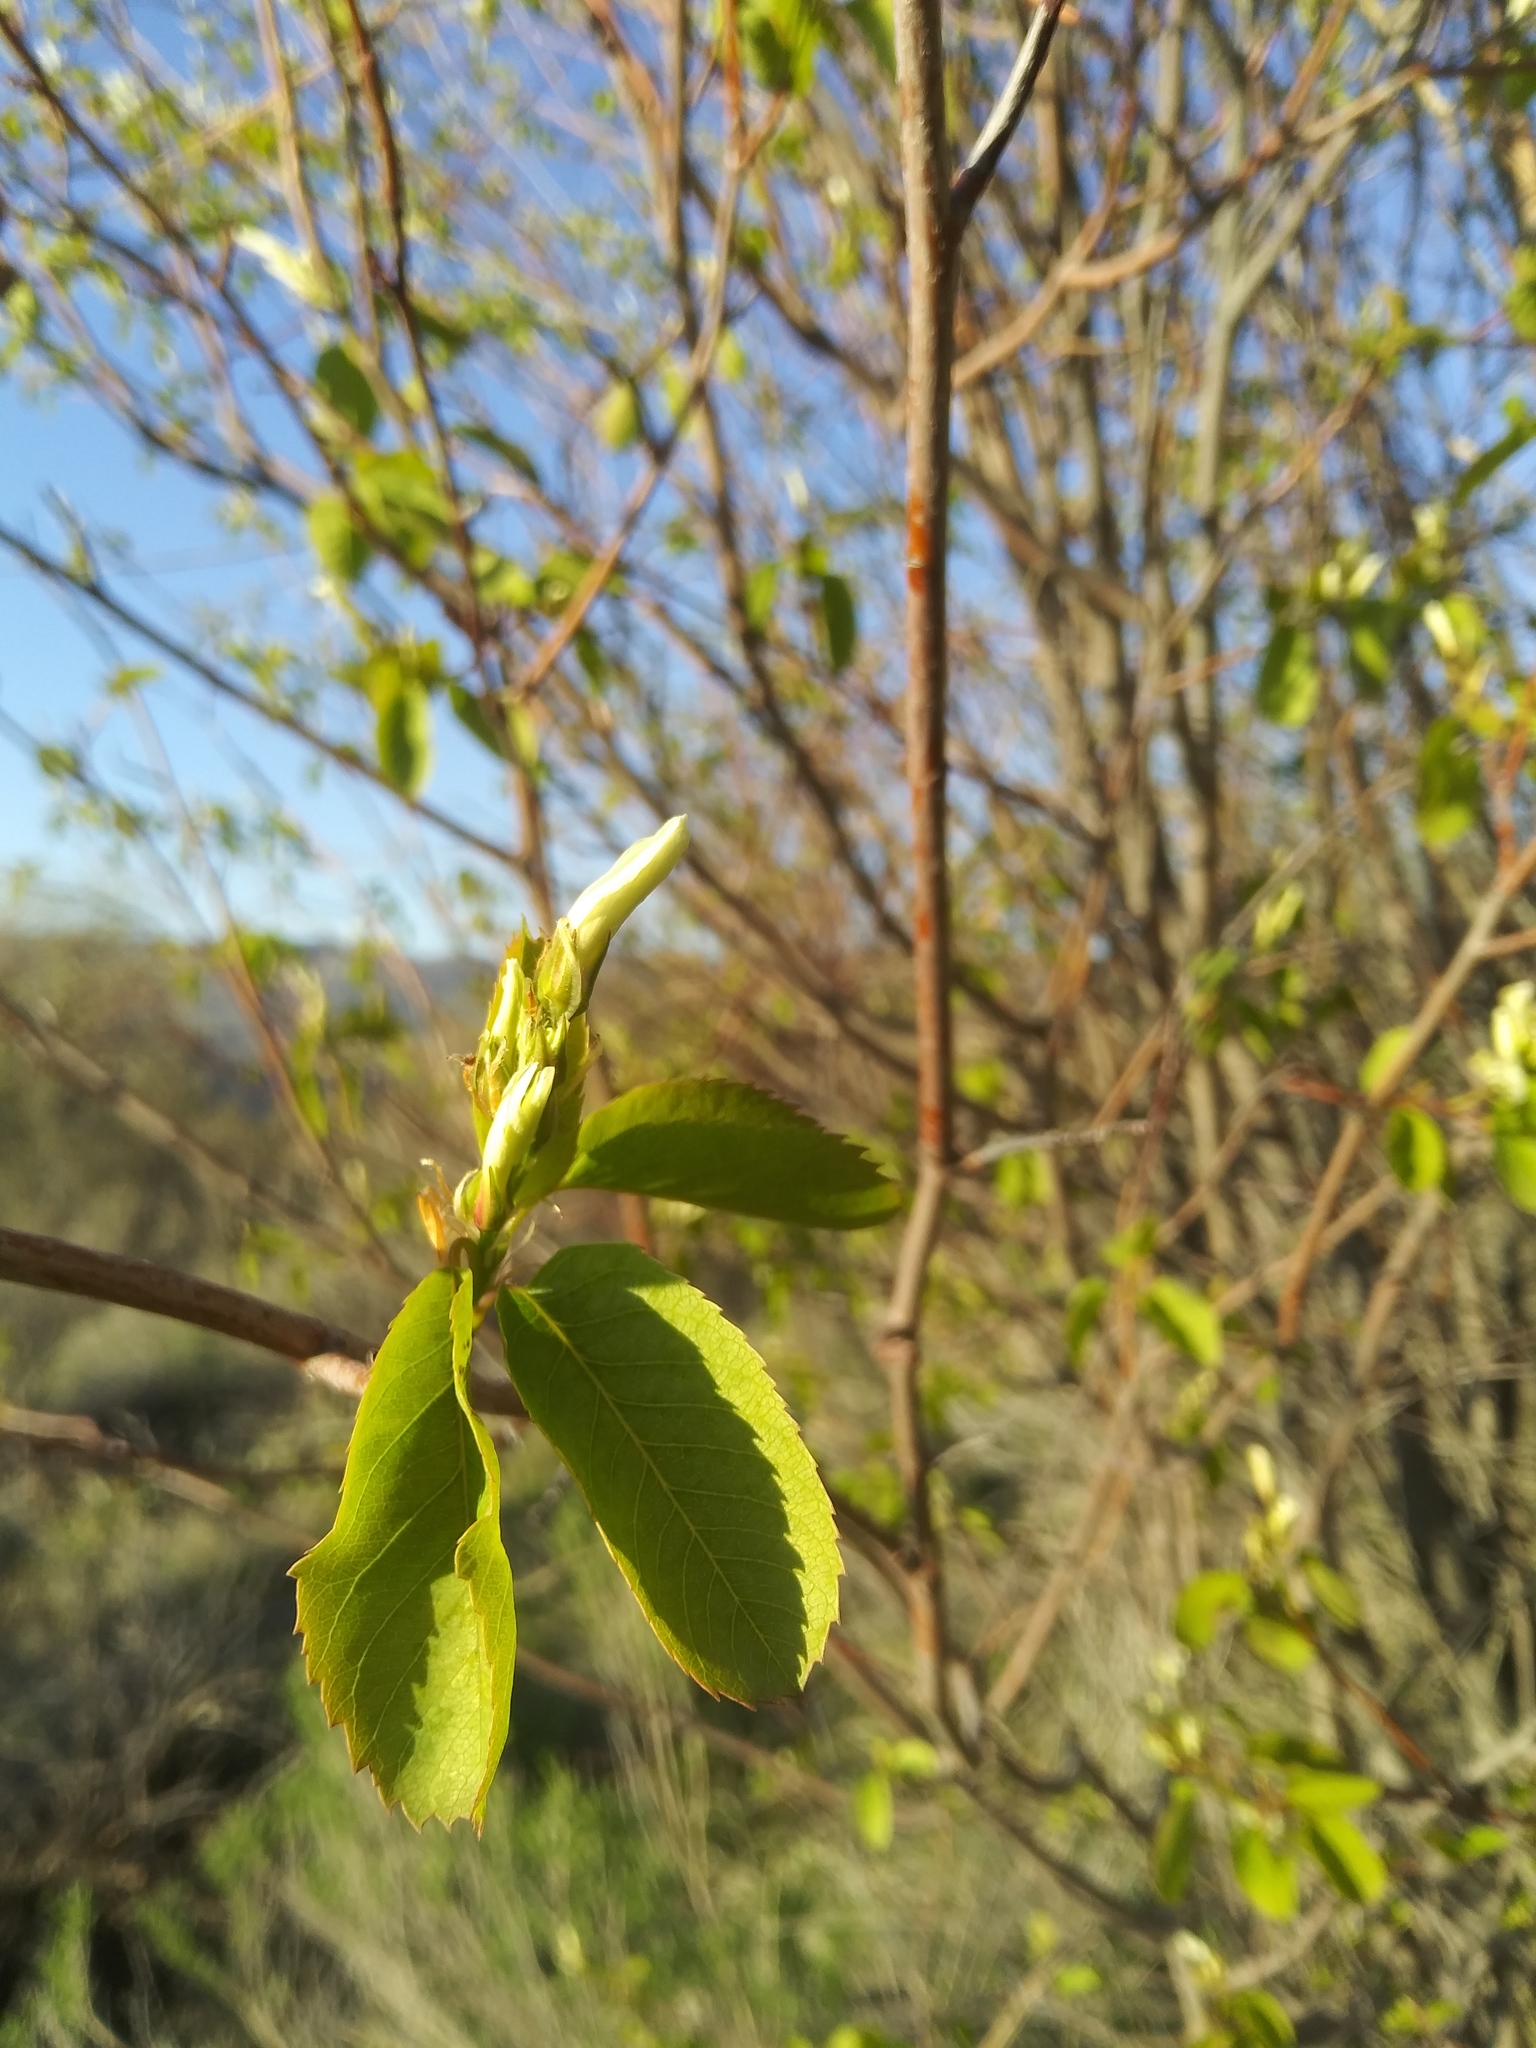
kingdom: Plantae
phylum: Tracheophyta
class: Magnoliopsida
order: Rosales
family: Rosaceae
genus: Amelanchier
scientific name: Amelanchier alnifolia
